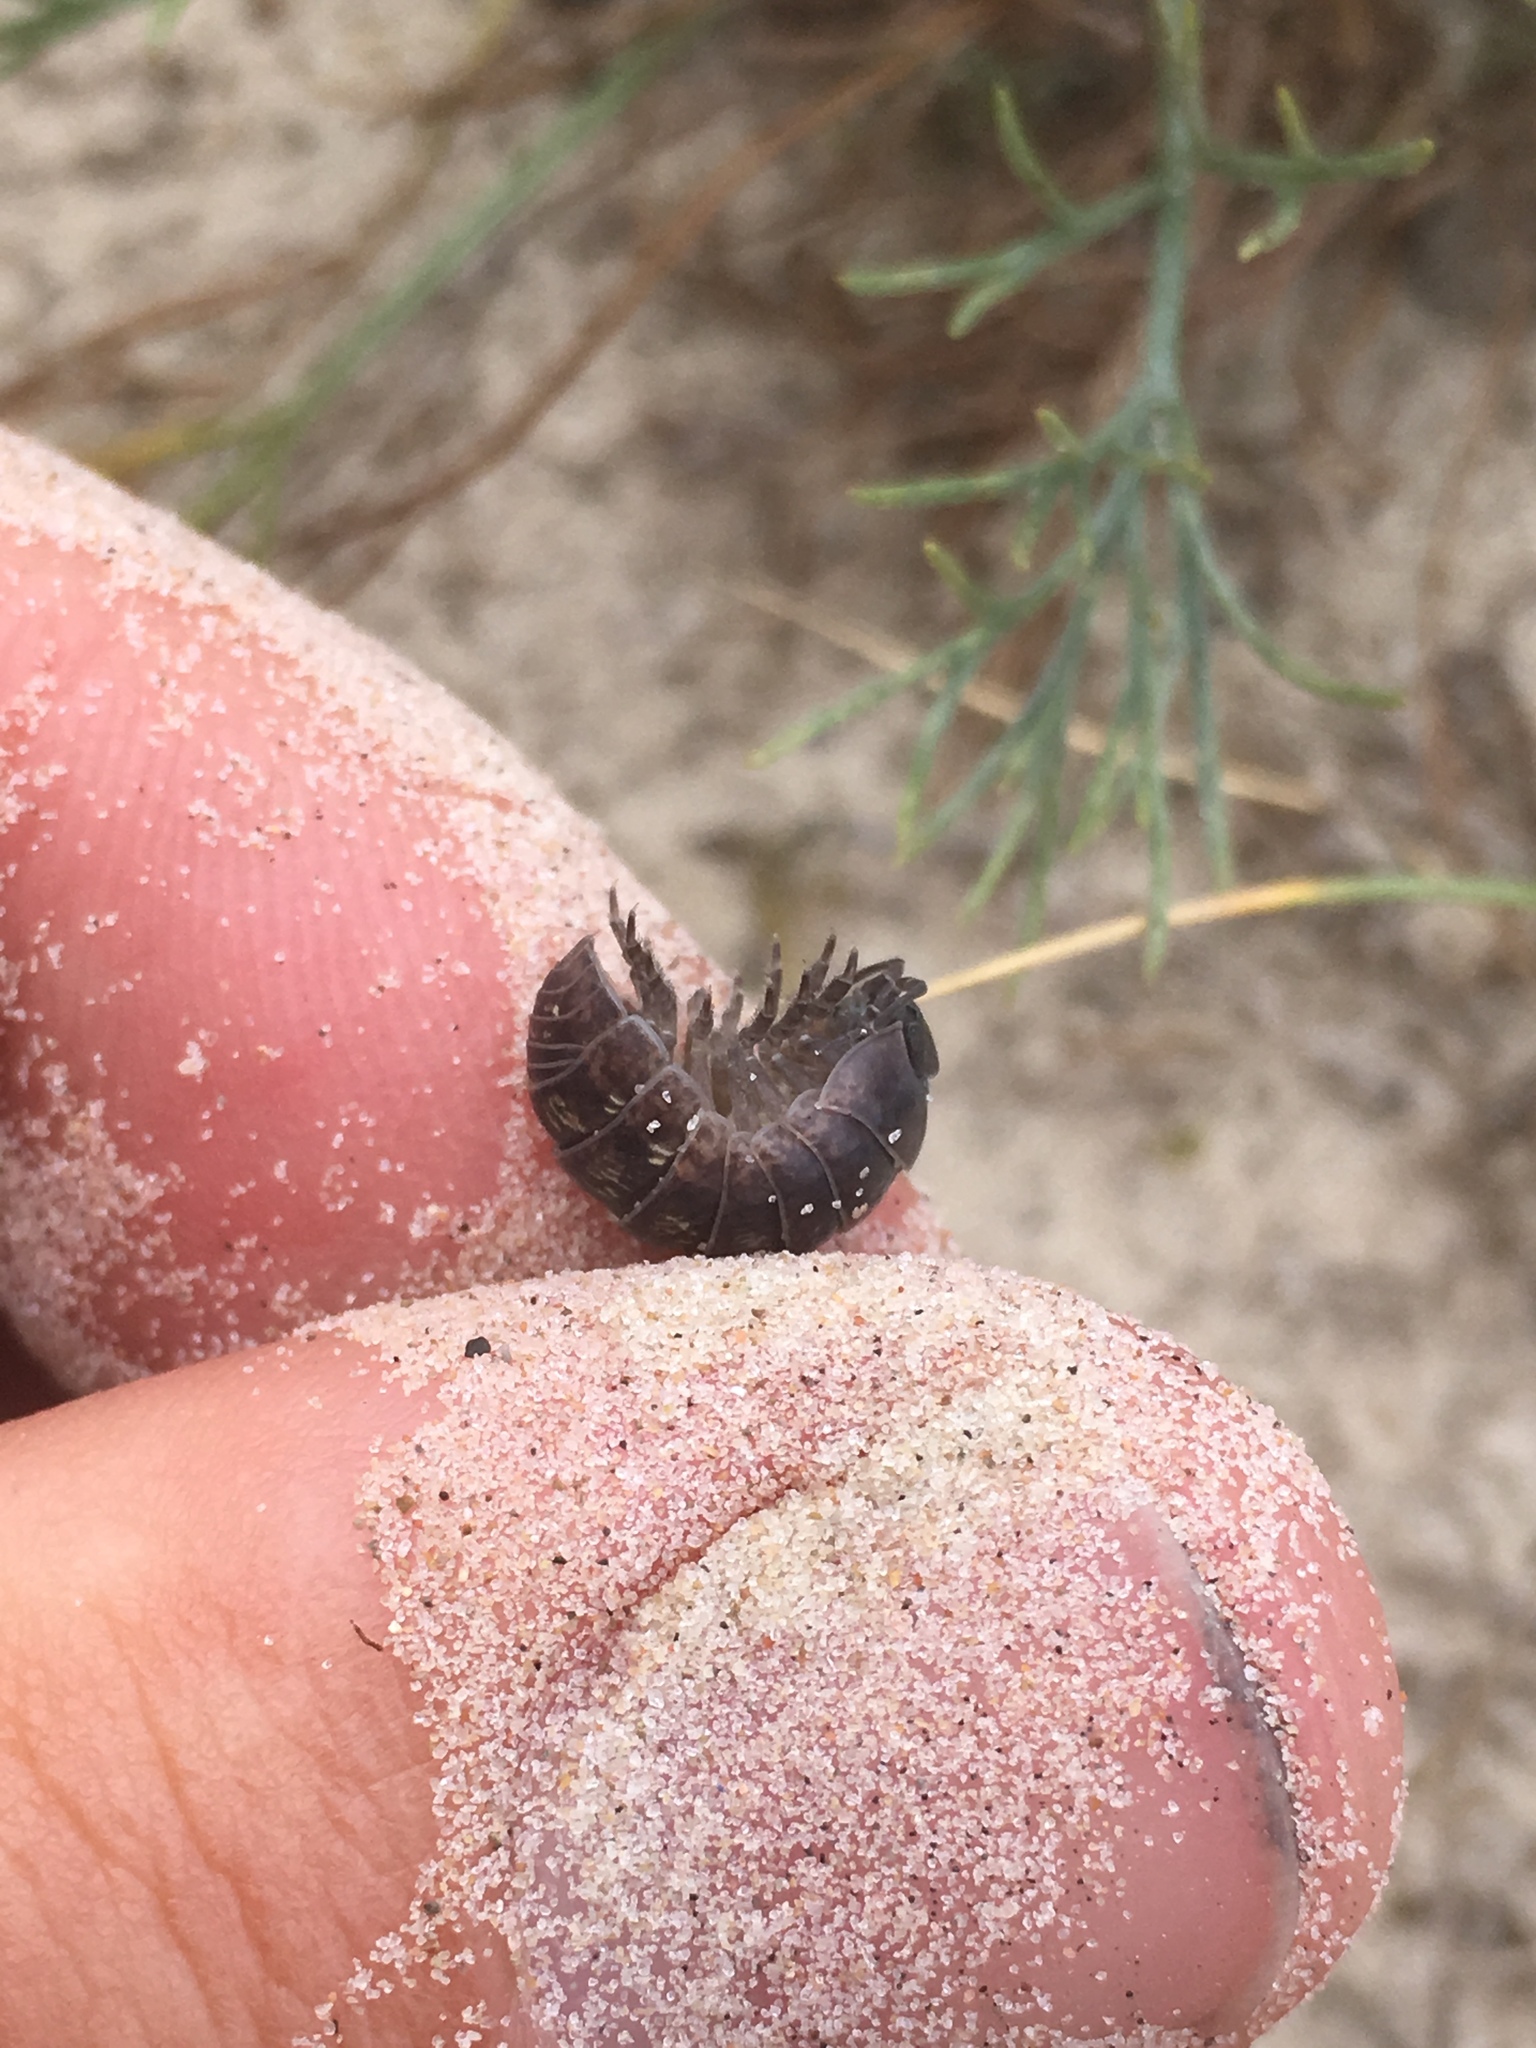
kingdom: Animalia
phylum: Arthropoda
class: Malacostraca
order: Isopoda
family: Armadillidiidae
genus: Armadillidium
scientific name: Armadillidium vulgare
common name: Common pill woodlouse
